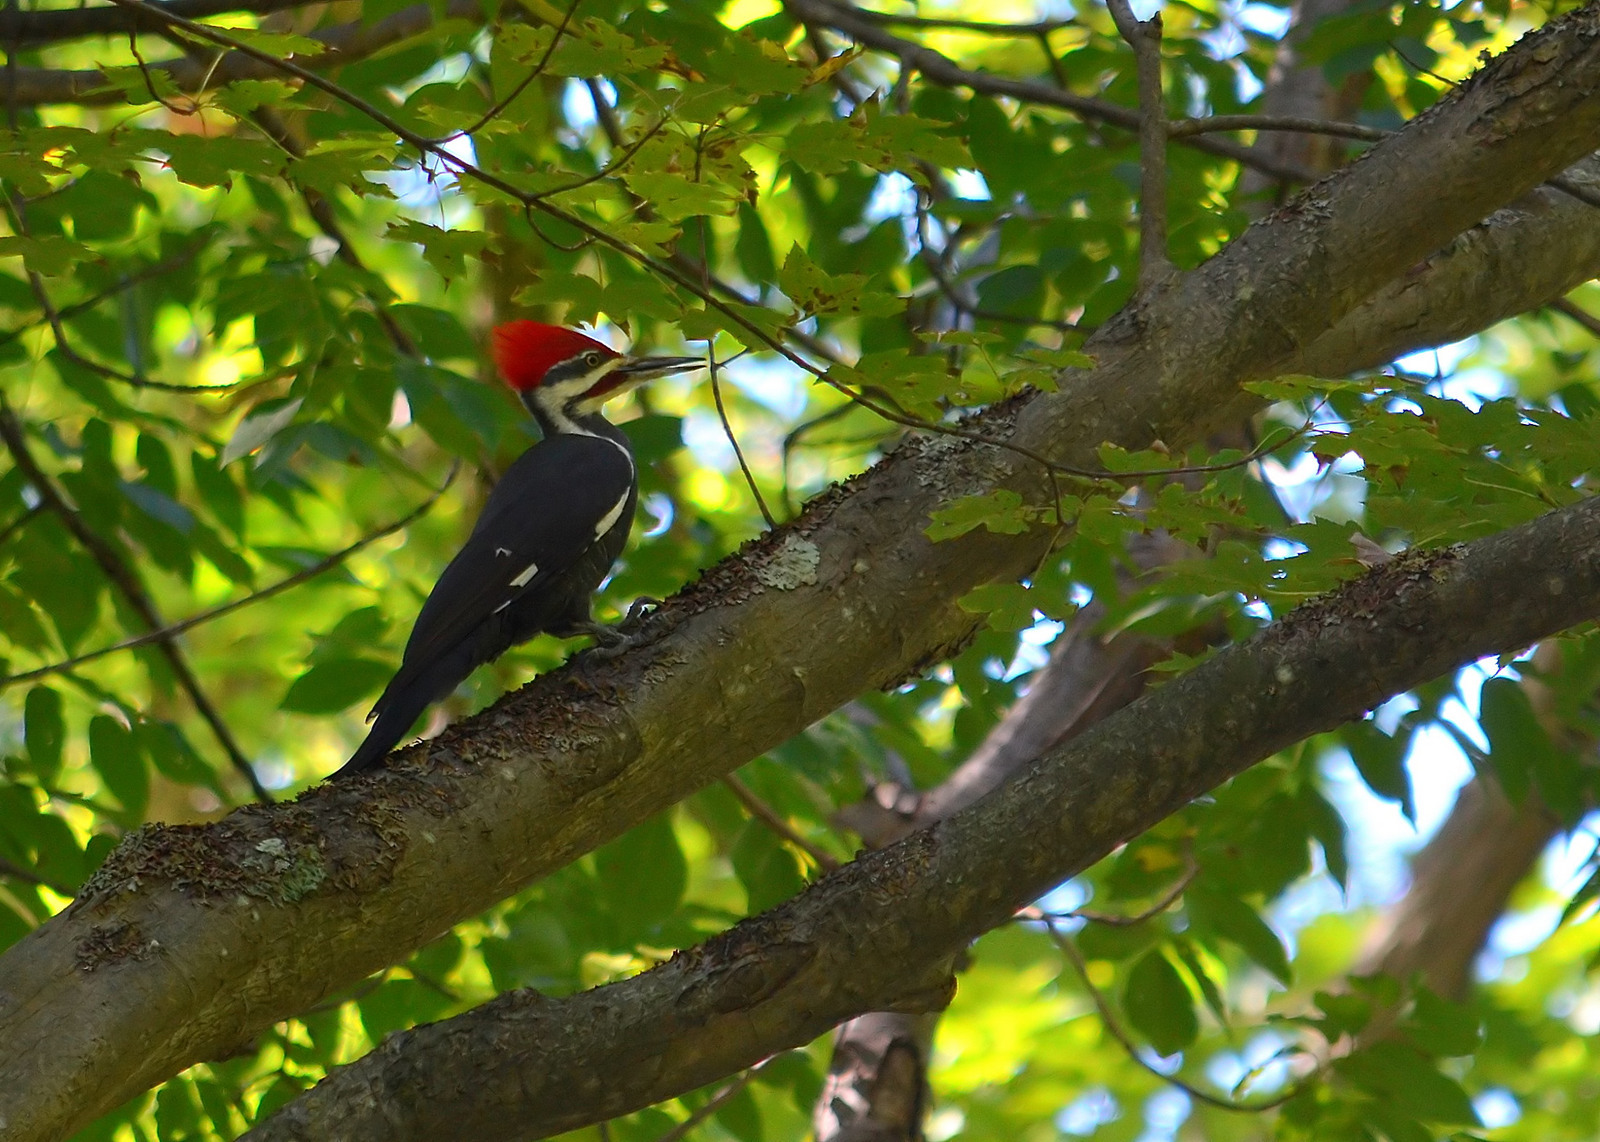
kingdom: Animalia
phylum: Chordata
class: Aves
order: Piciformes
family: Picidae
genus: Dryocopus
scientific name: Dryocopus pileatus
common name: Pileated woodpecker
